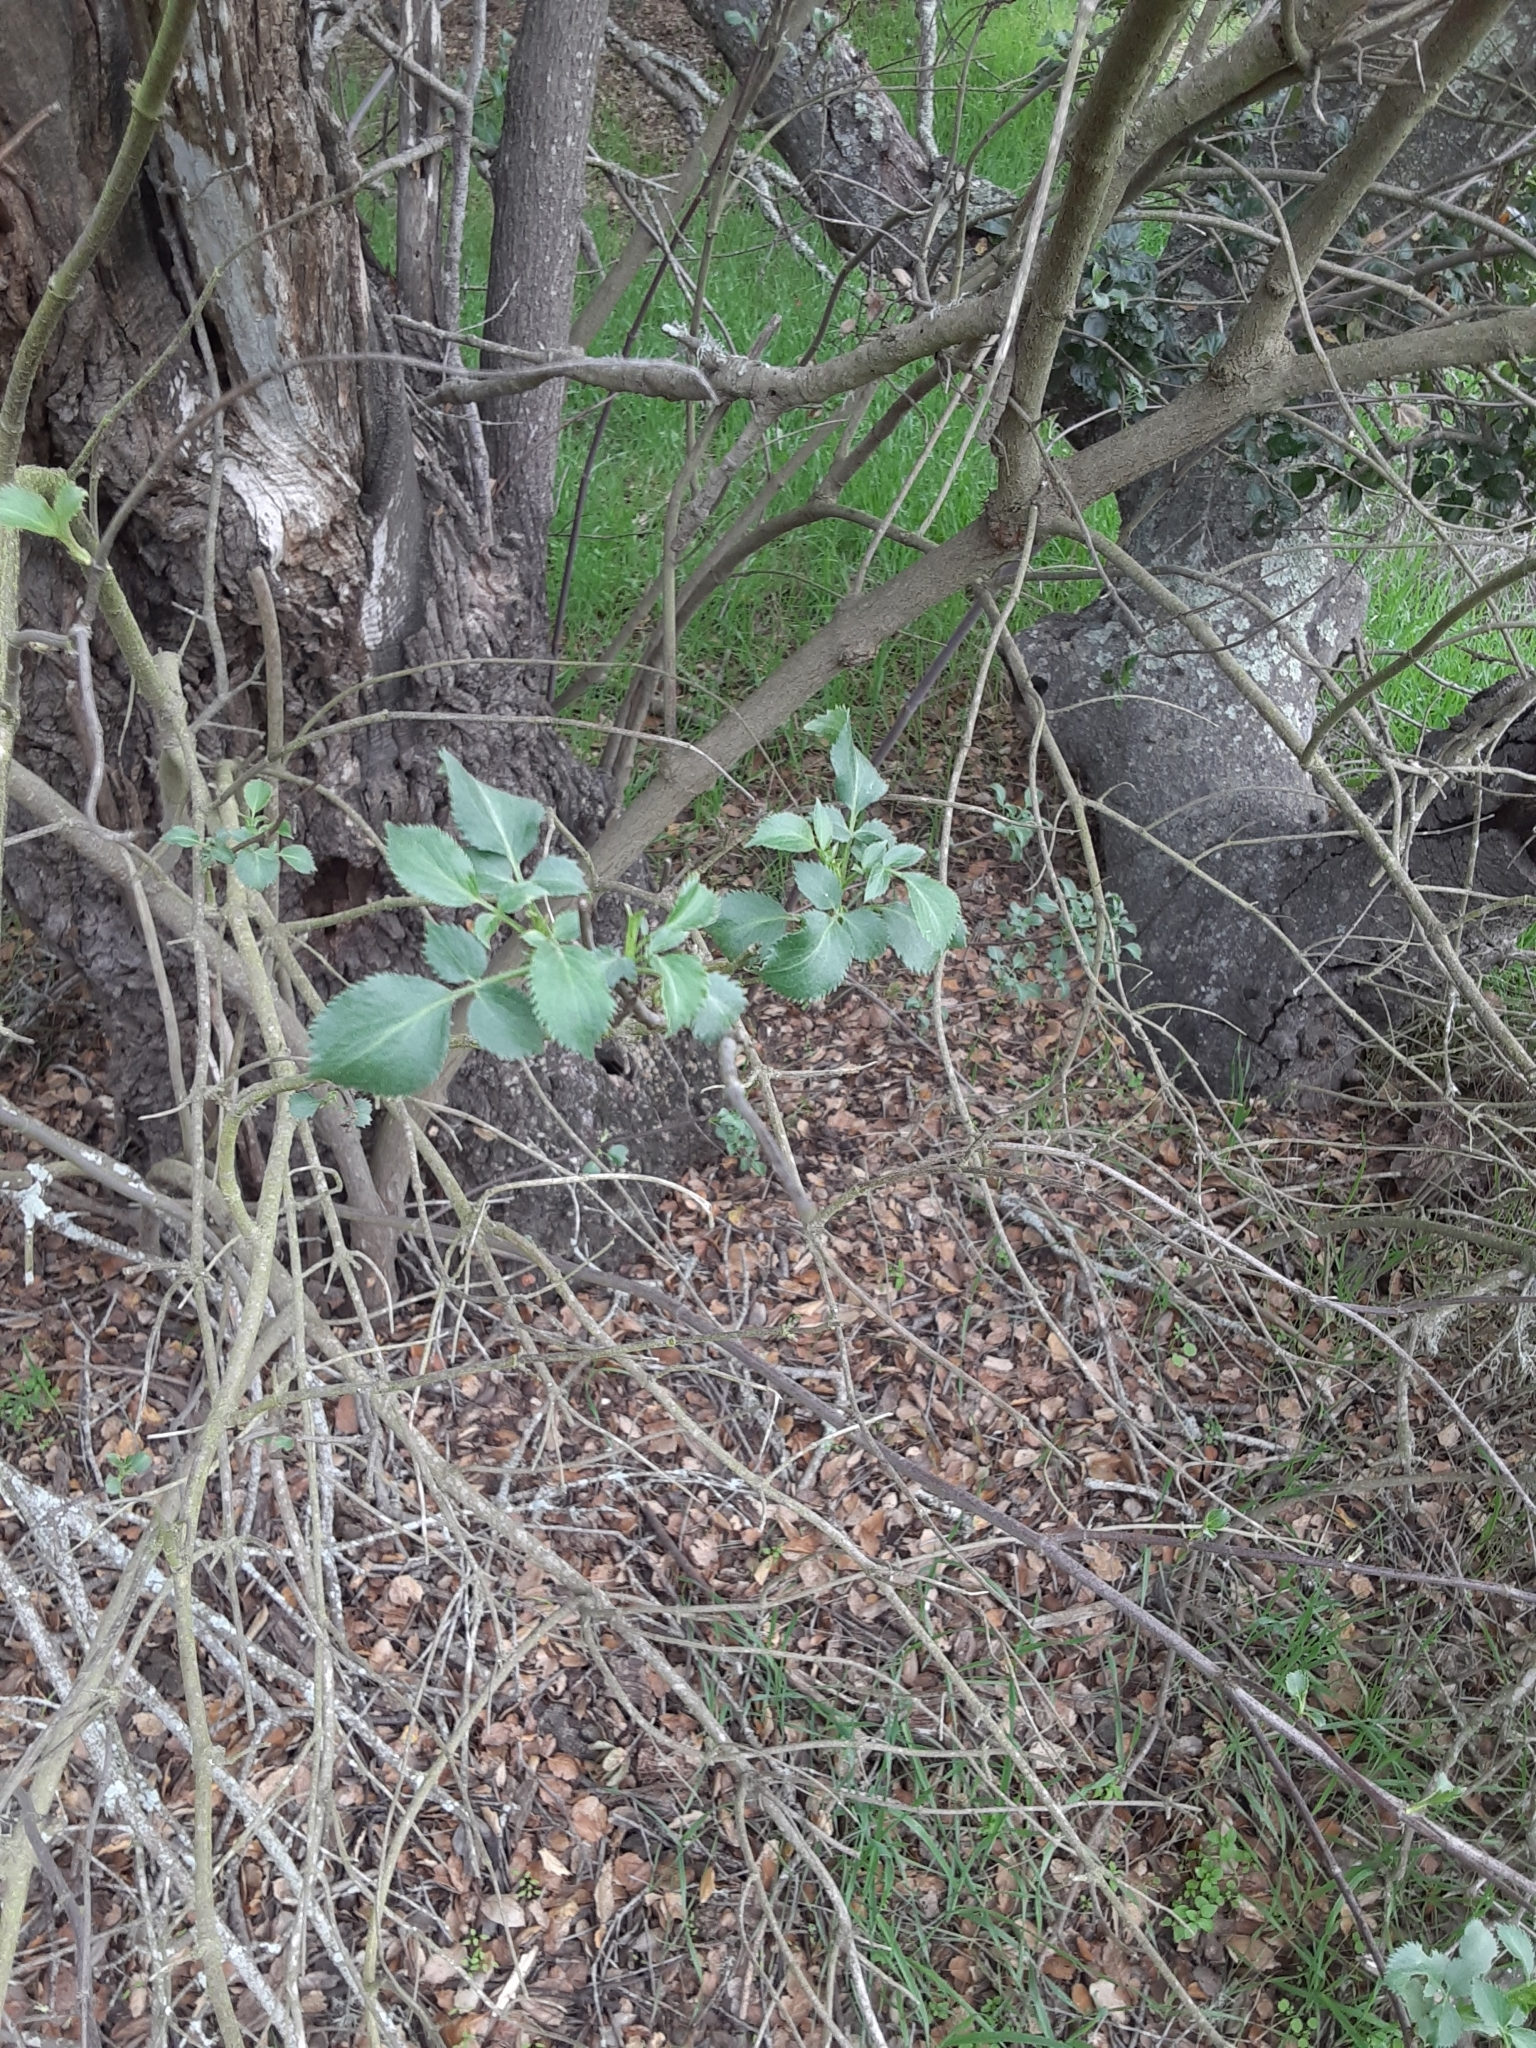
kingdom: Plantae
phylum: Tracheophyta
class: Magnoliopsida
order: Dipsacales
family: Viburnaceae
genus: Sambucus
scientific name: Sambucus cerulea
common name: Blue elder
